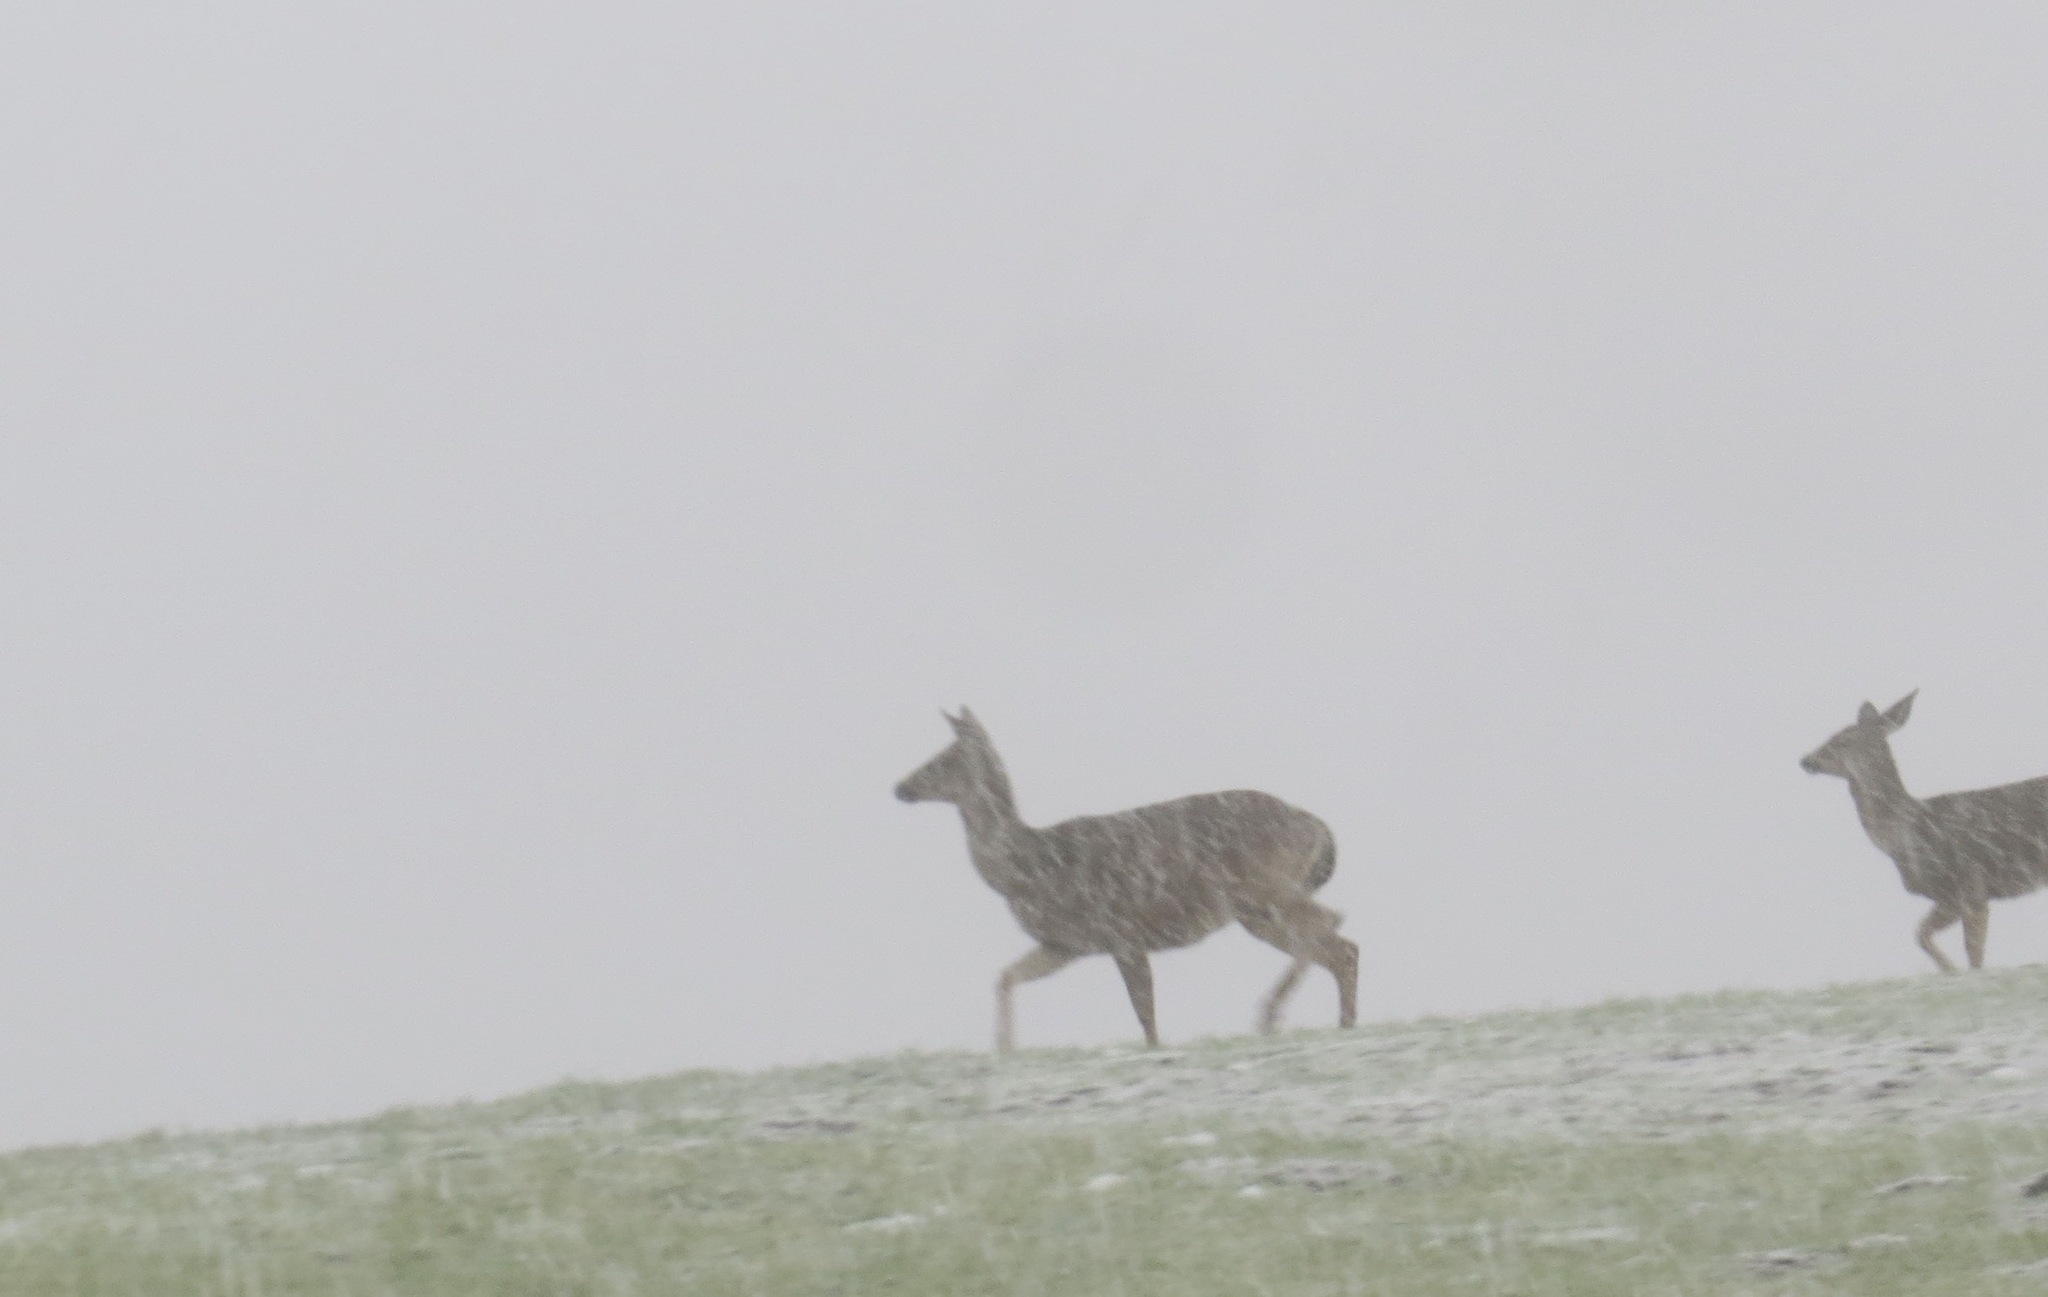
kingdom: Animalia
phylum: Chordata
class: Mammalia
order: Artiodactyla
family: Cervidae
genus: Odocoileus
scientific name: Odocoileus hemionus
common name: Mule deer
